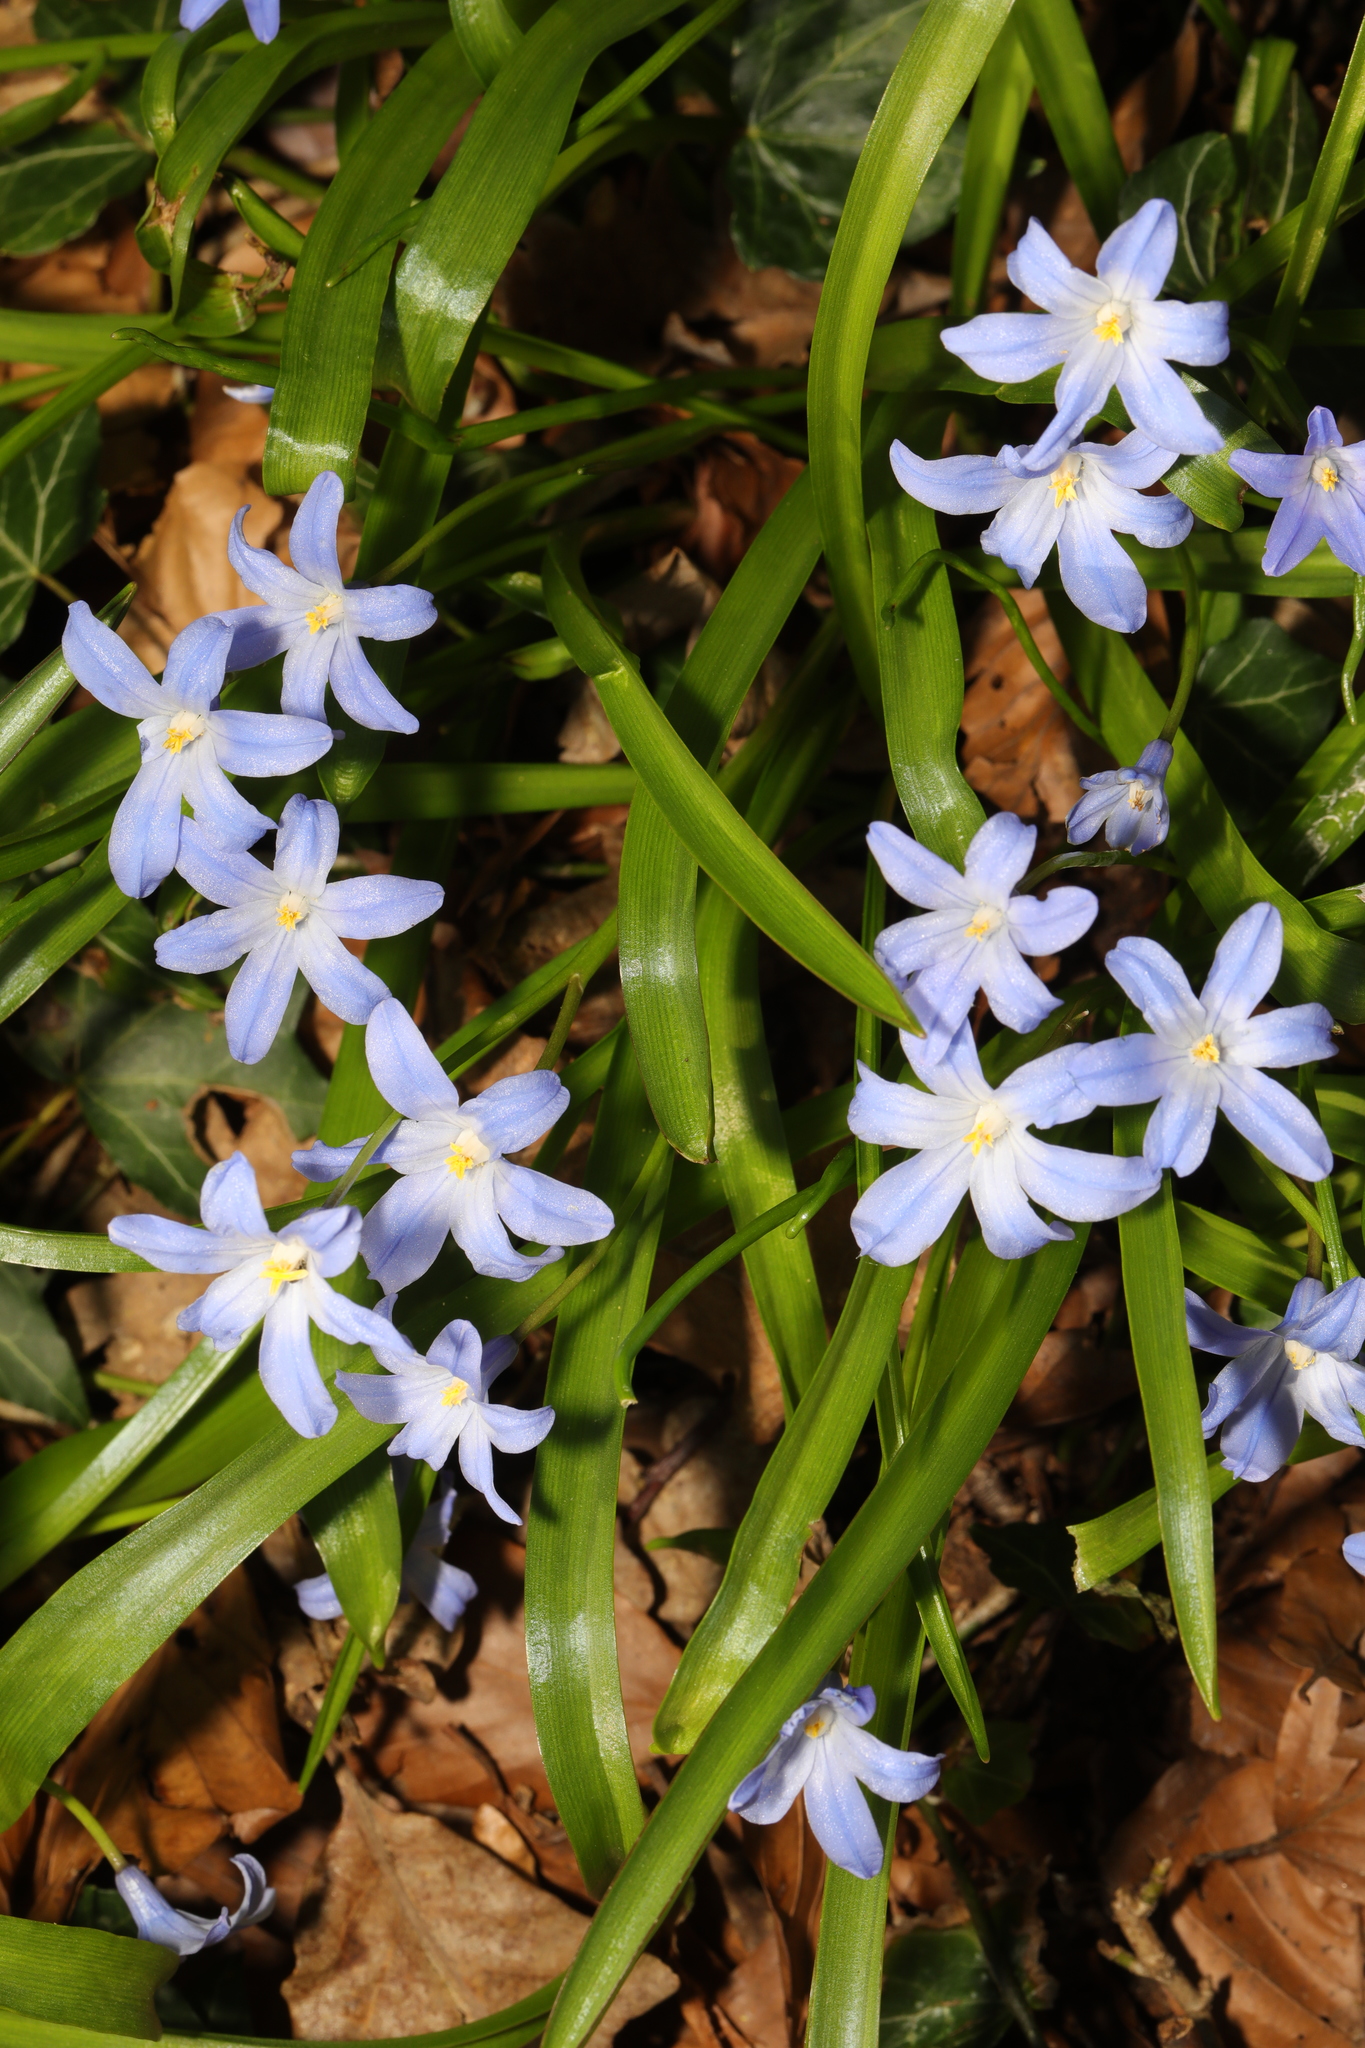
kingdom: Plantae
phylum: Tracheophyta
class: Liliopsida
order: Asparagales
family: Asparagaceae
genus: Scilla
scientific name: Scilla luciliae
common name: Boissier's glory-of-the-snow
